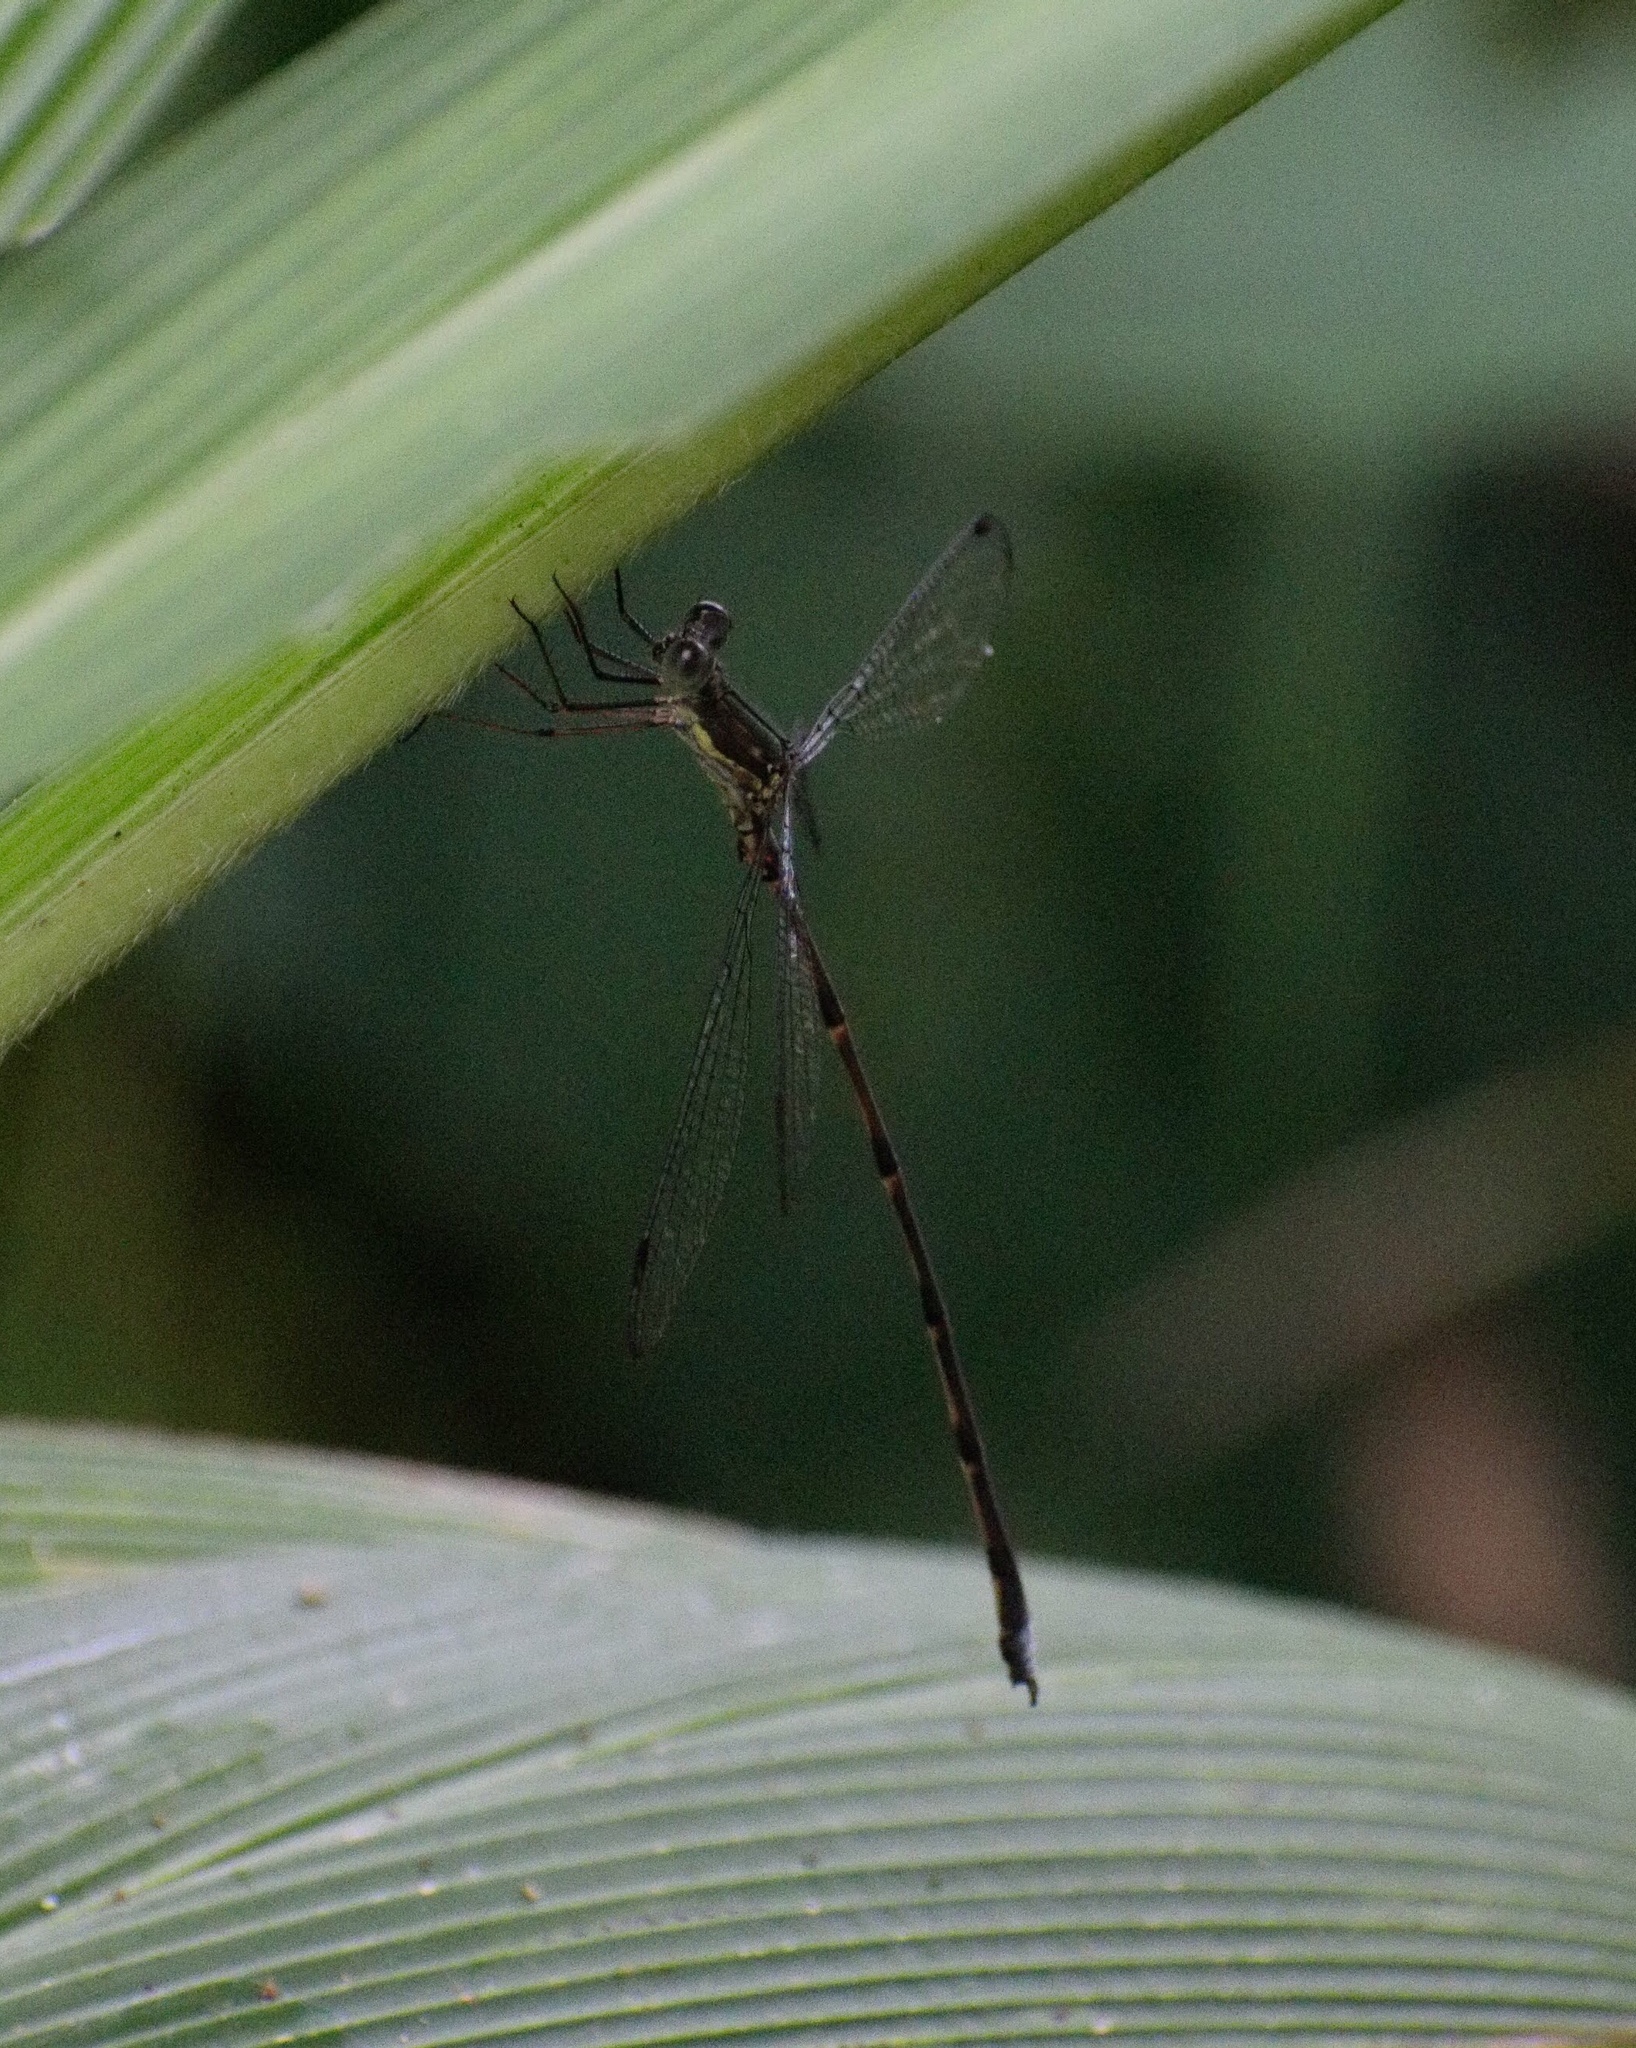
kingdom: Animalia
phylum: Arthropoda
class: Insecta
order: Odonata
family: Synlestidae
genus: Chlorolestes
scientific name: Chlorolestes tessellatus
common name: Forest malachite
